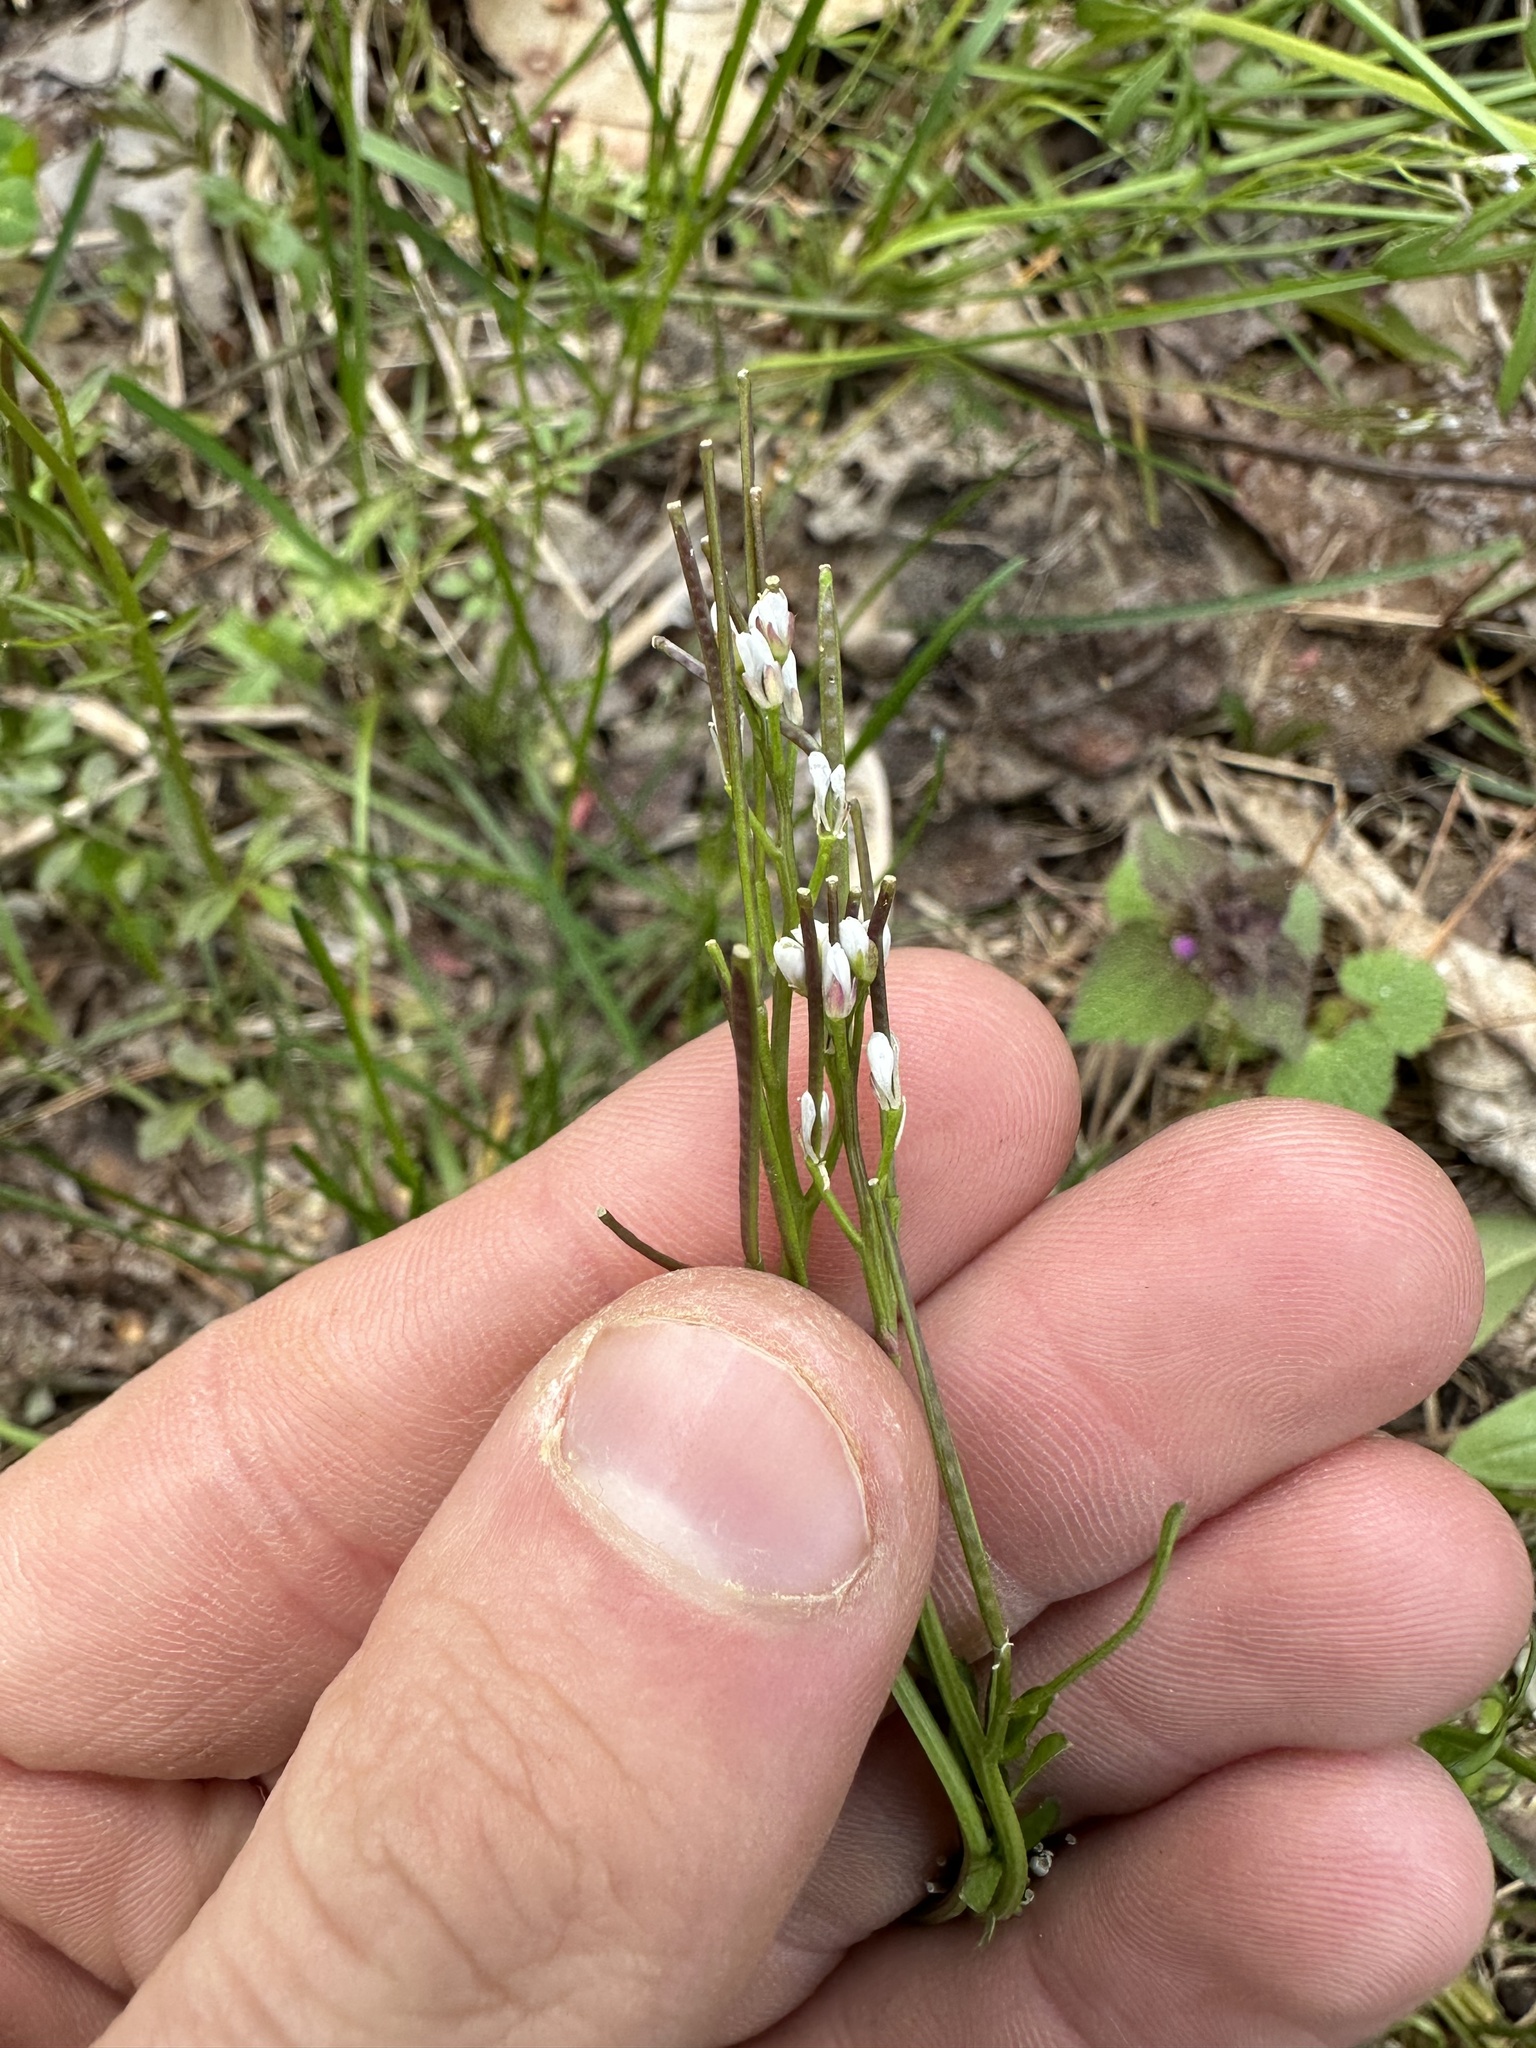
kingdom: Plantae
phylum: Tracheophyta
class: Magnoliopsida
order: Brassicales
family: Brassicaceae
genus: Cardamine
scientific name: Cardamine hirsuta
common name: Hairy bittercress
